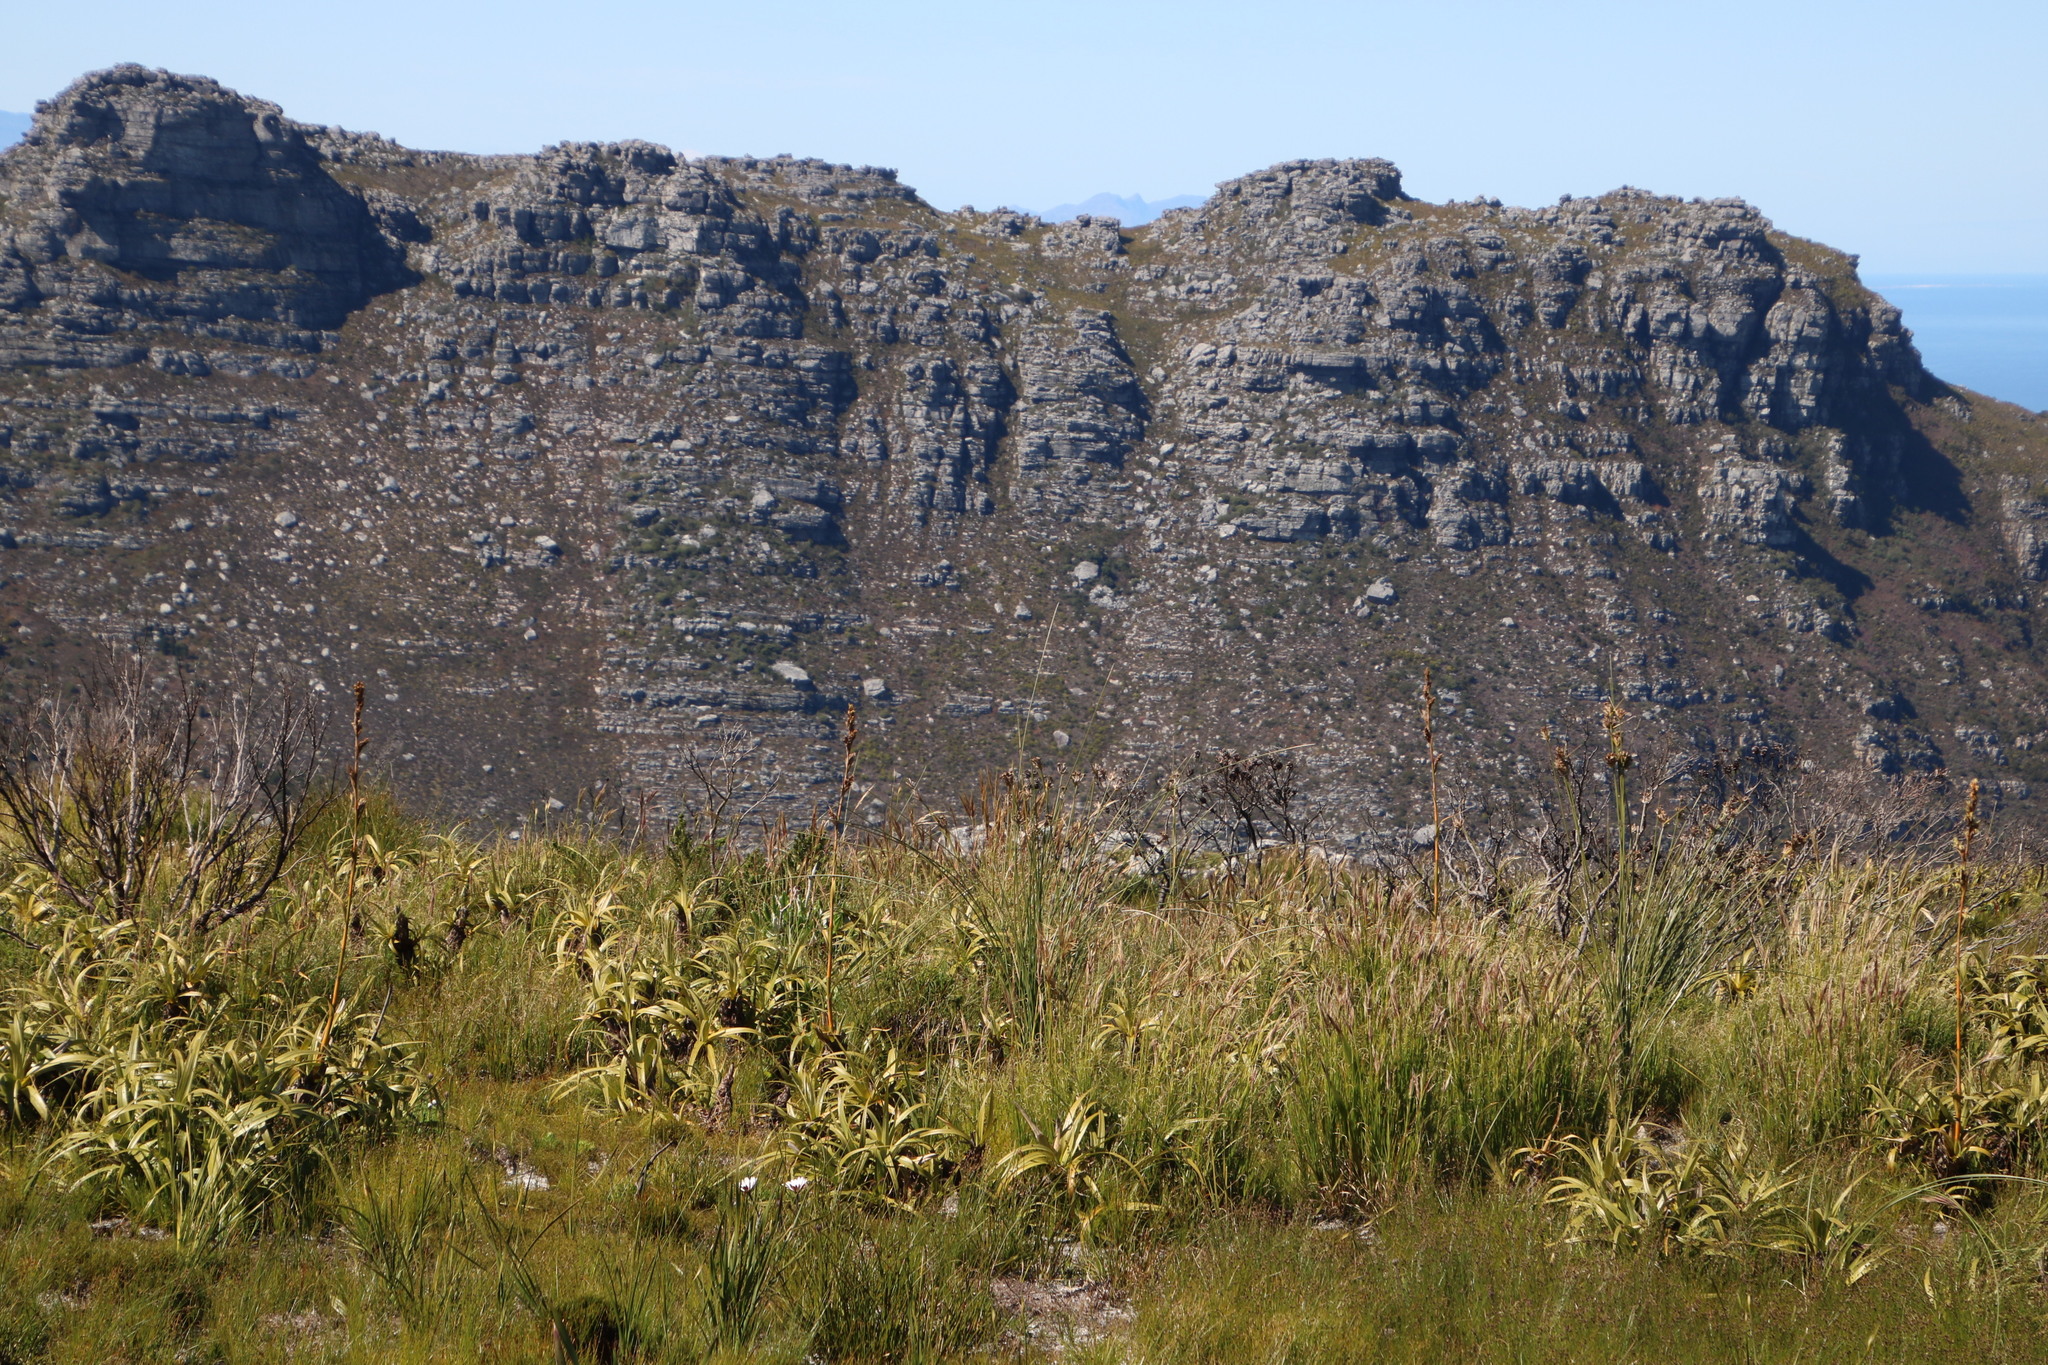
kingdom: Plantae
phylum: Tracheophyta
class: Liliopsida
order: Poales
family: Cyperaceae
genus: Tetraria
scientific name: Tetraria thermalis
